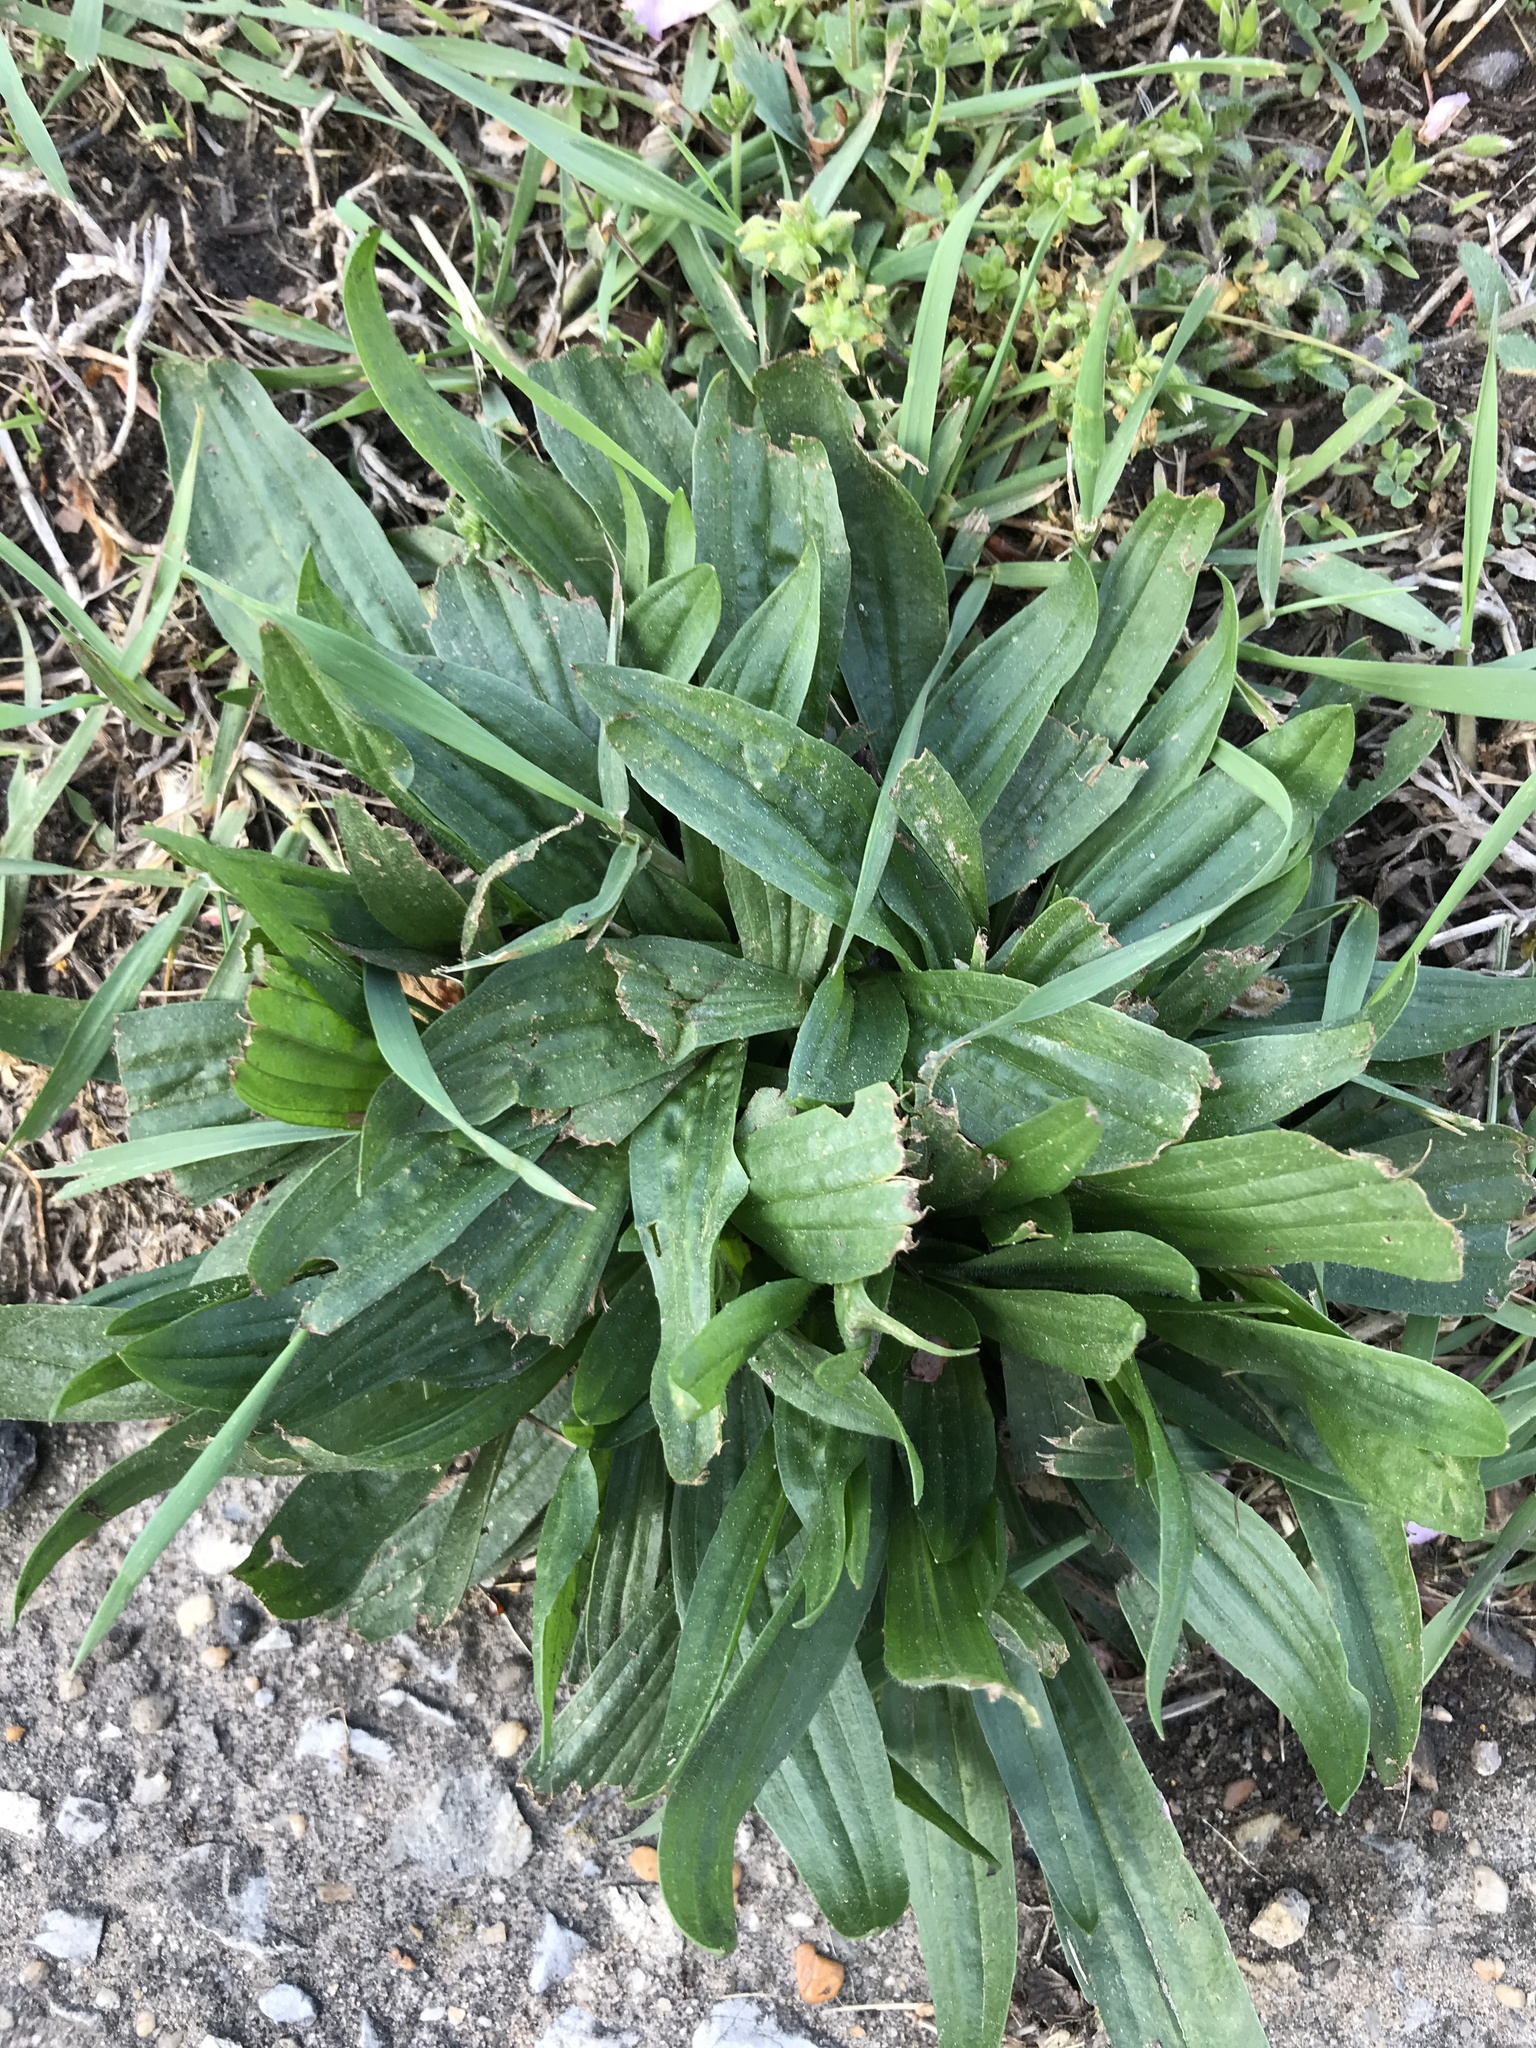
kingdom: Plantae
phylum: Tracheophyta
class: Magnoliopsida
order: Lamiales
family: Plantaginaceae
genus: Plantago
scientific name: Plantago lanceolata
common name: Ribwort plantain
